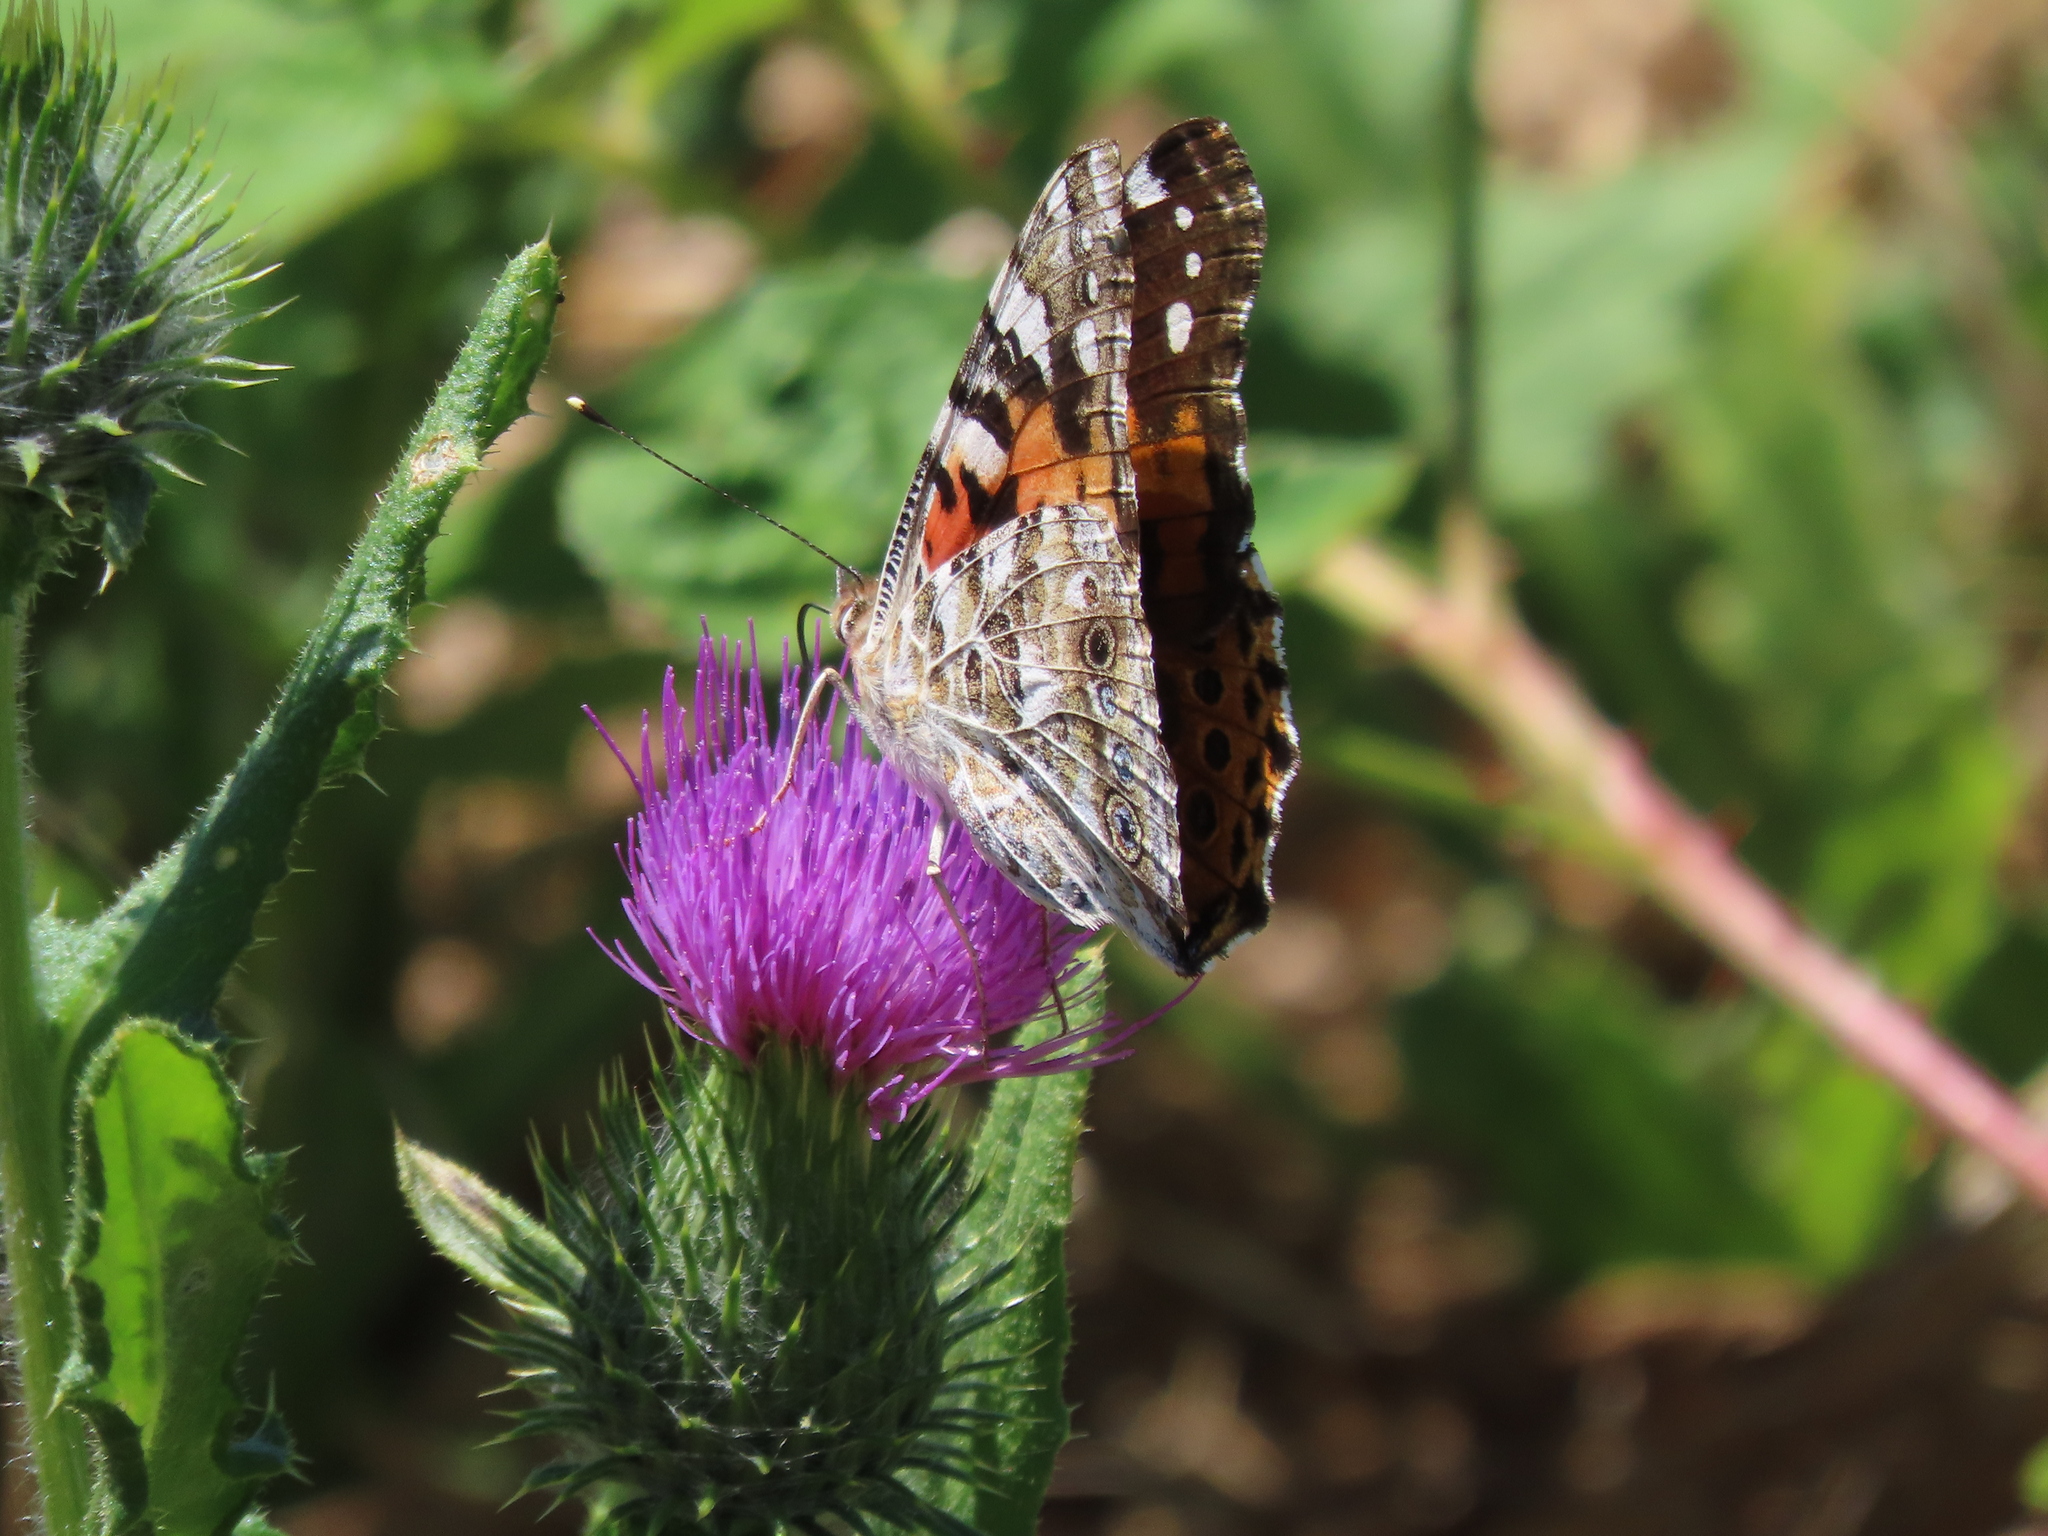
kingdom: Animalia
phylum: Arthropoda
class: Insecta
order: Lepidoptera
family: Nymphalidae
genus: Vanessa
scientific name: Vanessa cardui
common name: Painted lady
